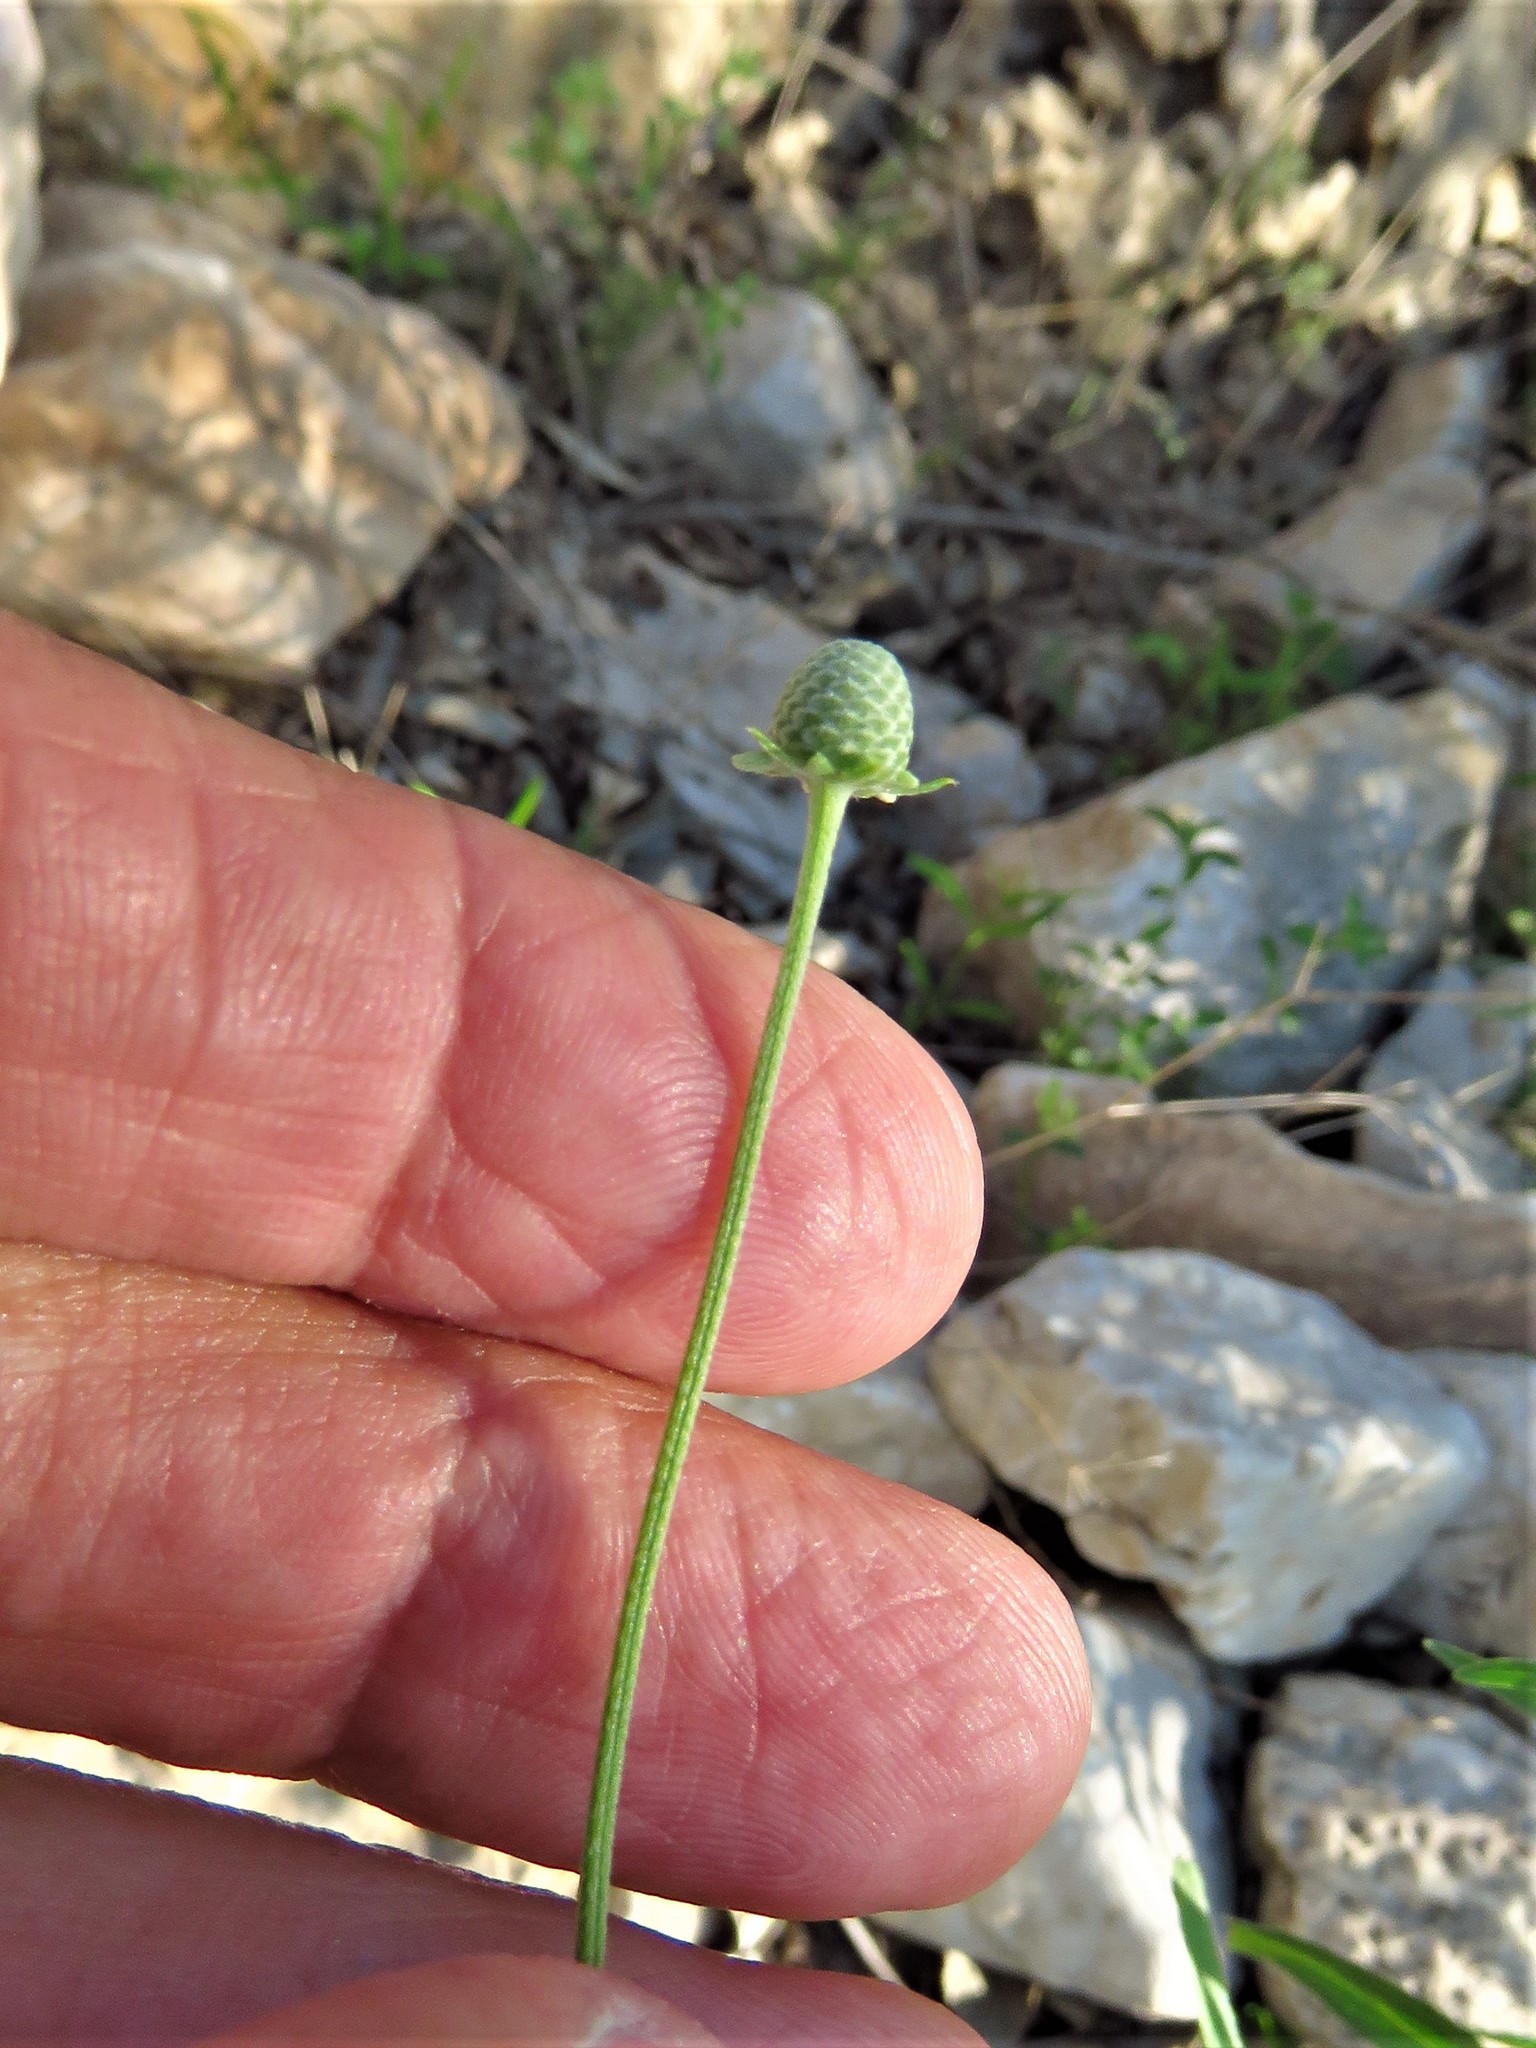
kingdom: Plantae
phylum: Tracheophyta
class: Magnoliopsida
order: Asterales
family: Asteraceae
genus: Ratibida
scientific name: Ratibida columnifera
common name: Prairie coneflower
